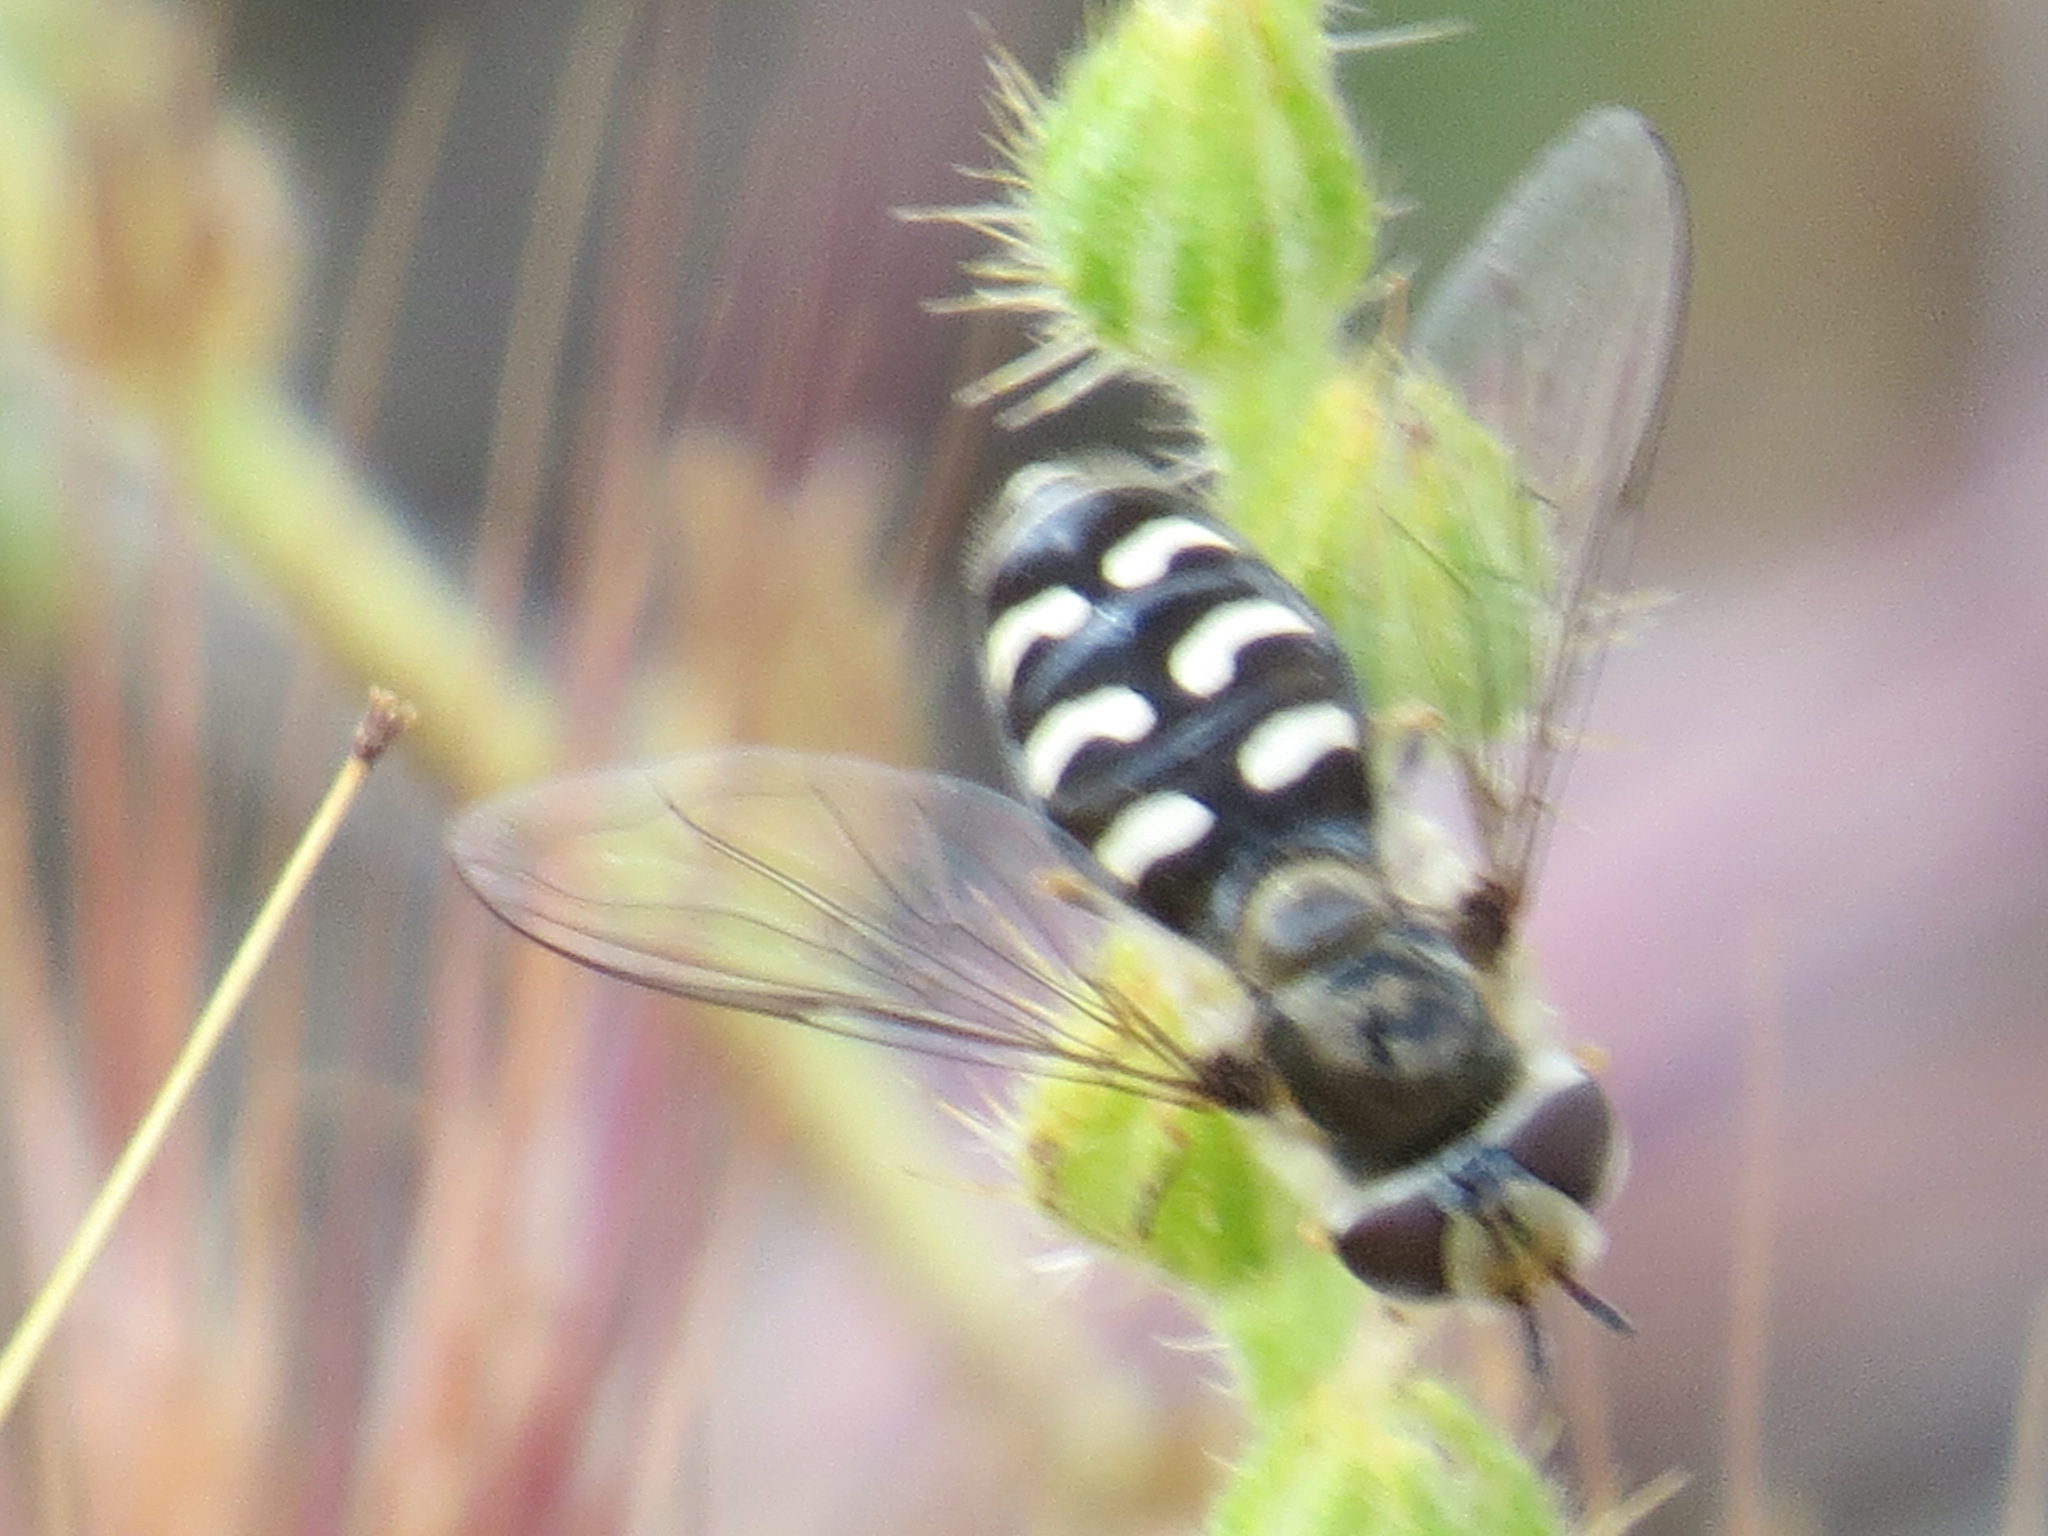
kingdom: Animalia
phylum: Arthropoda
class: Insecta
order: Diptera
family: Syrphidae
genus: Scaeva
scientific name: Scaeva affinis
